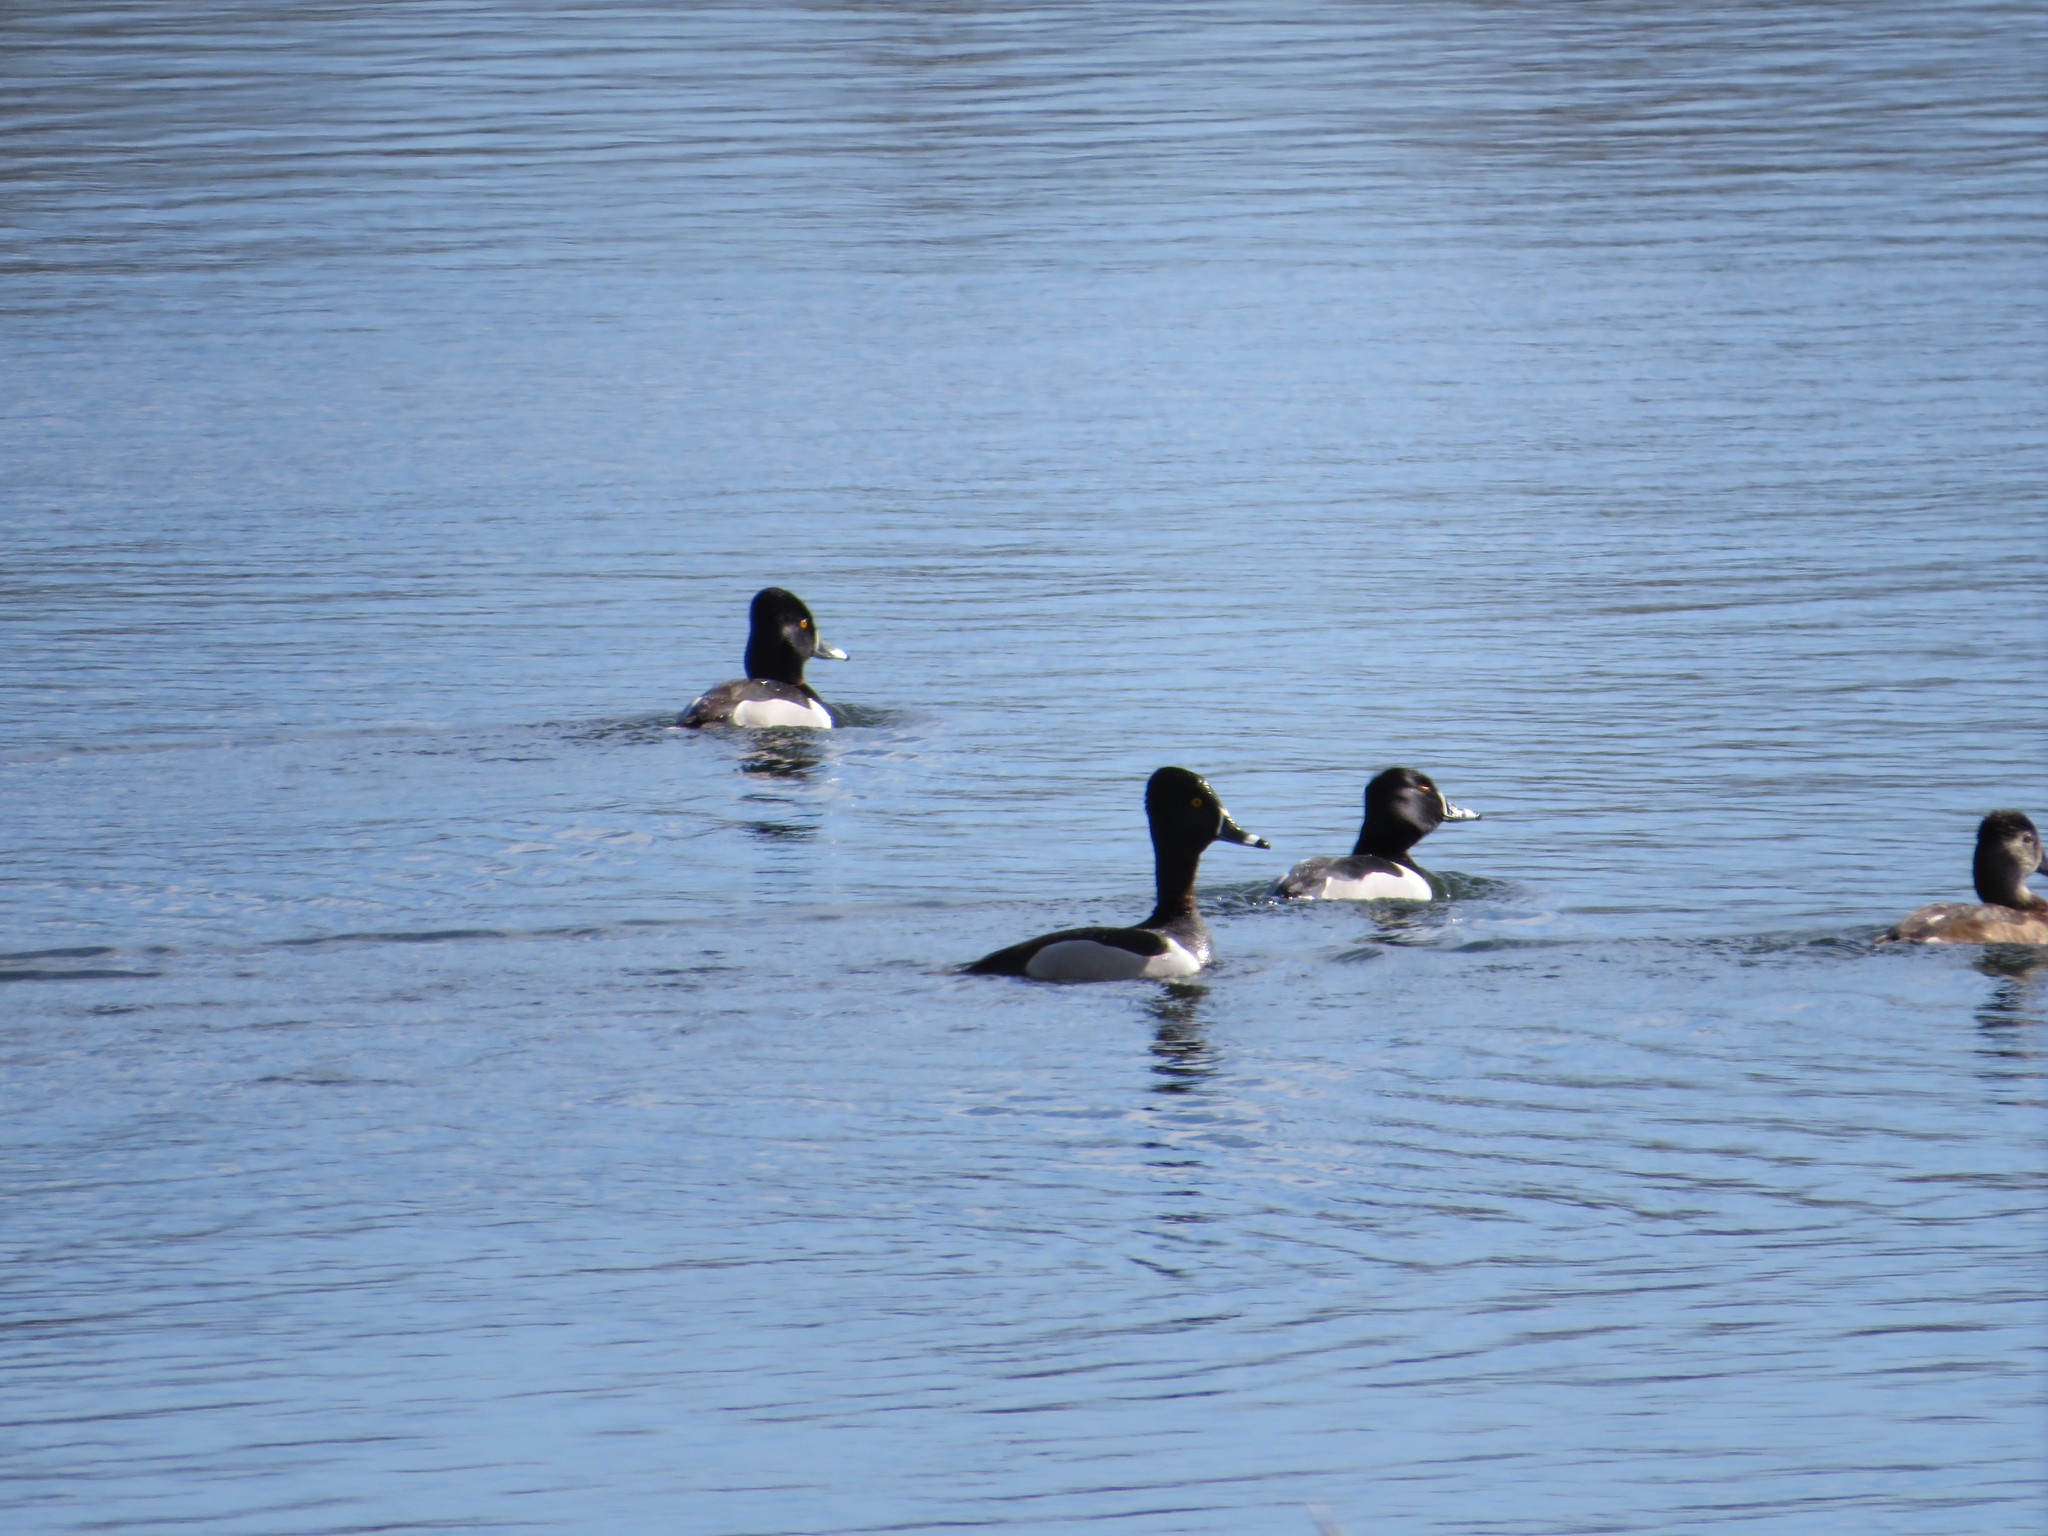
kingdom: Animalia
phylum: Chordata
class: Aves
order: Anseriformes
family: Anatidae
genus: Aythya
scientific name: Aythya collaris
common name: Ring-necked duck
